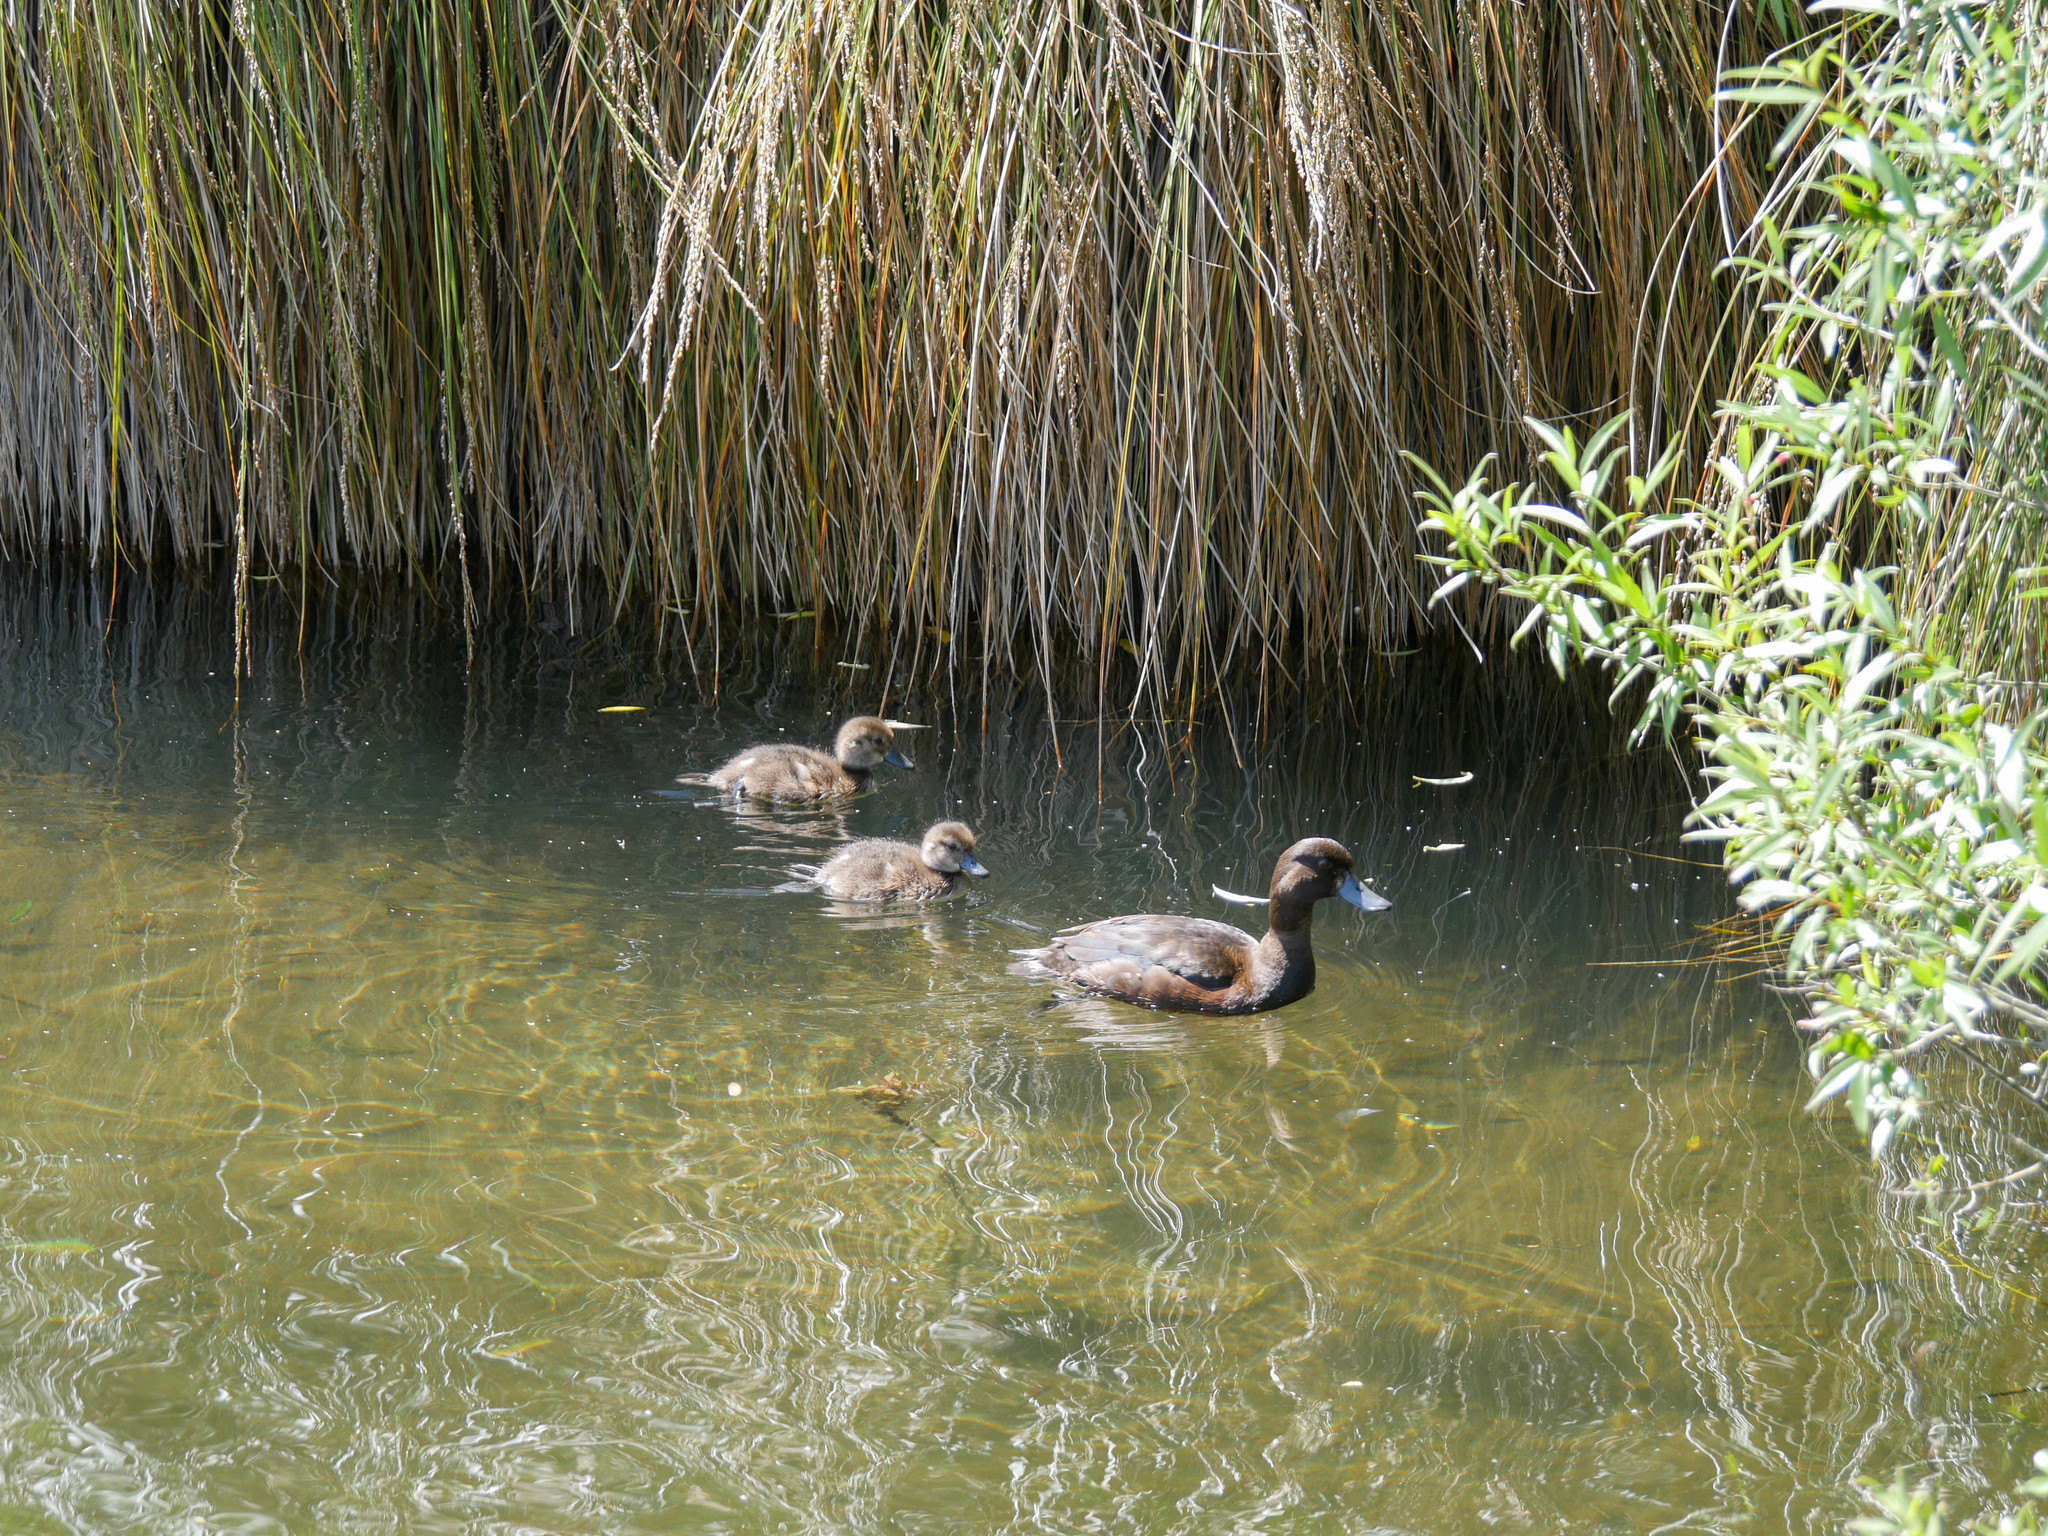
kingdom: Animalia
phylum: Chordata
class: Aves
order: Anseriformes
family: Anatidae
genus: Aythya
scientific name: Aythya novaeseelandiae
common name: New zealand scaup
